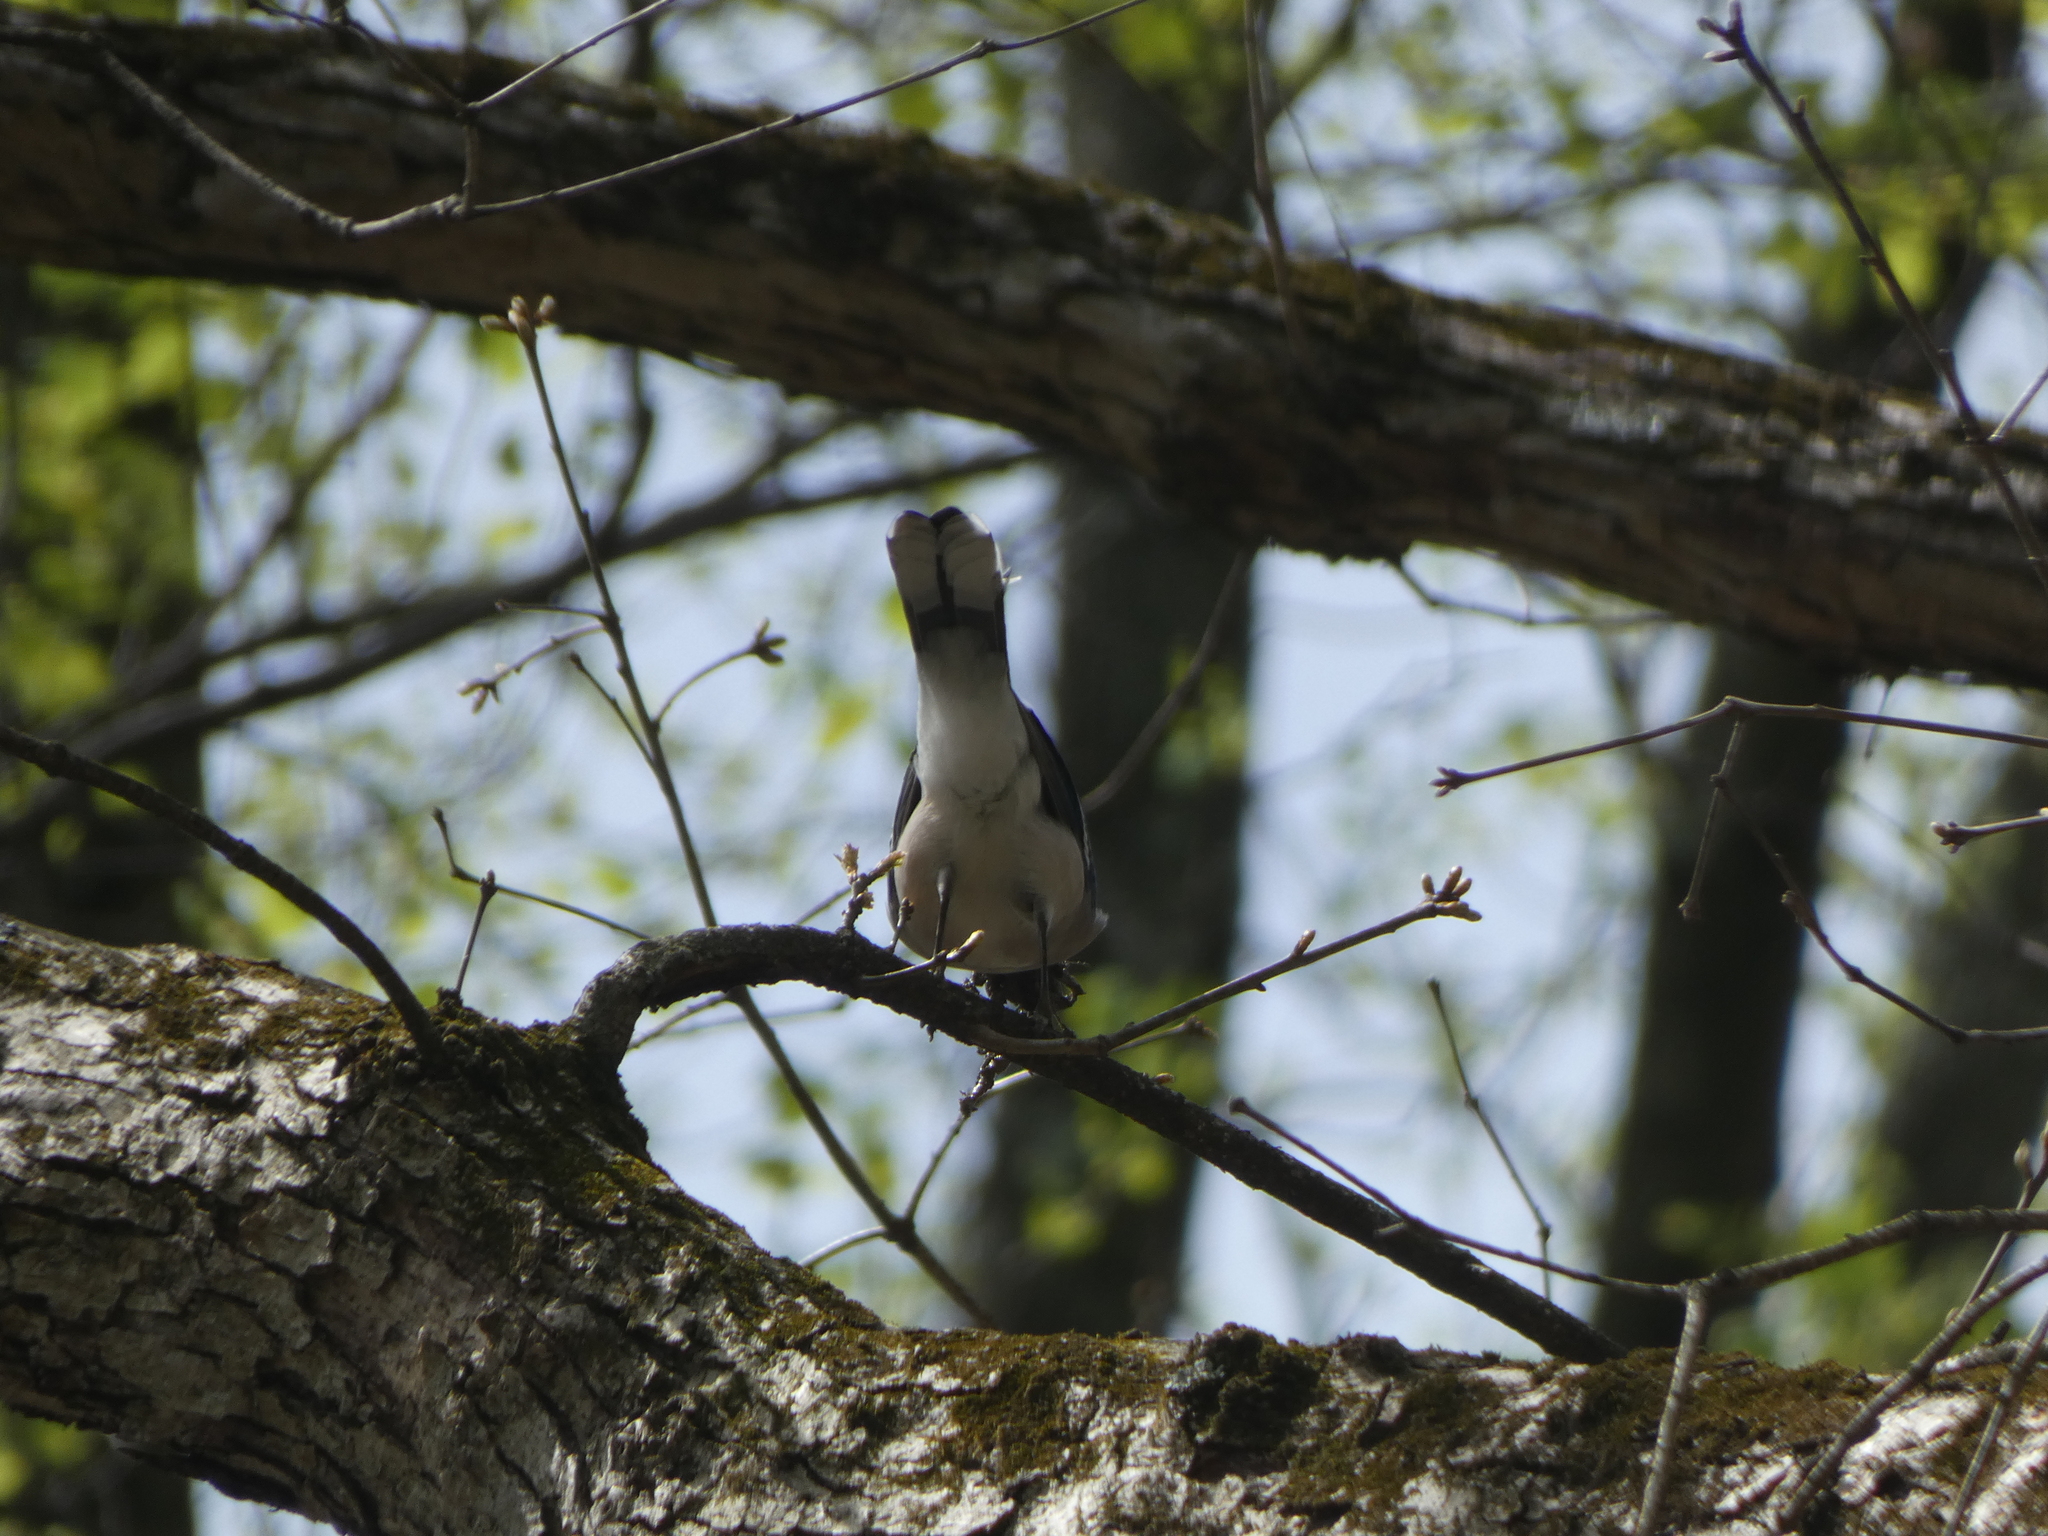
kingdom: Animalia
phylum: Chordata
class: Aves
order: Passeriformes
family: Corvidae
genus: Cyanocitta
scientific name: Cyanocitta cristata
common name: Blue jay
